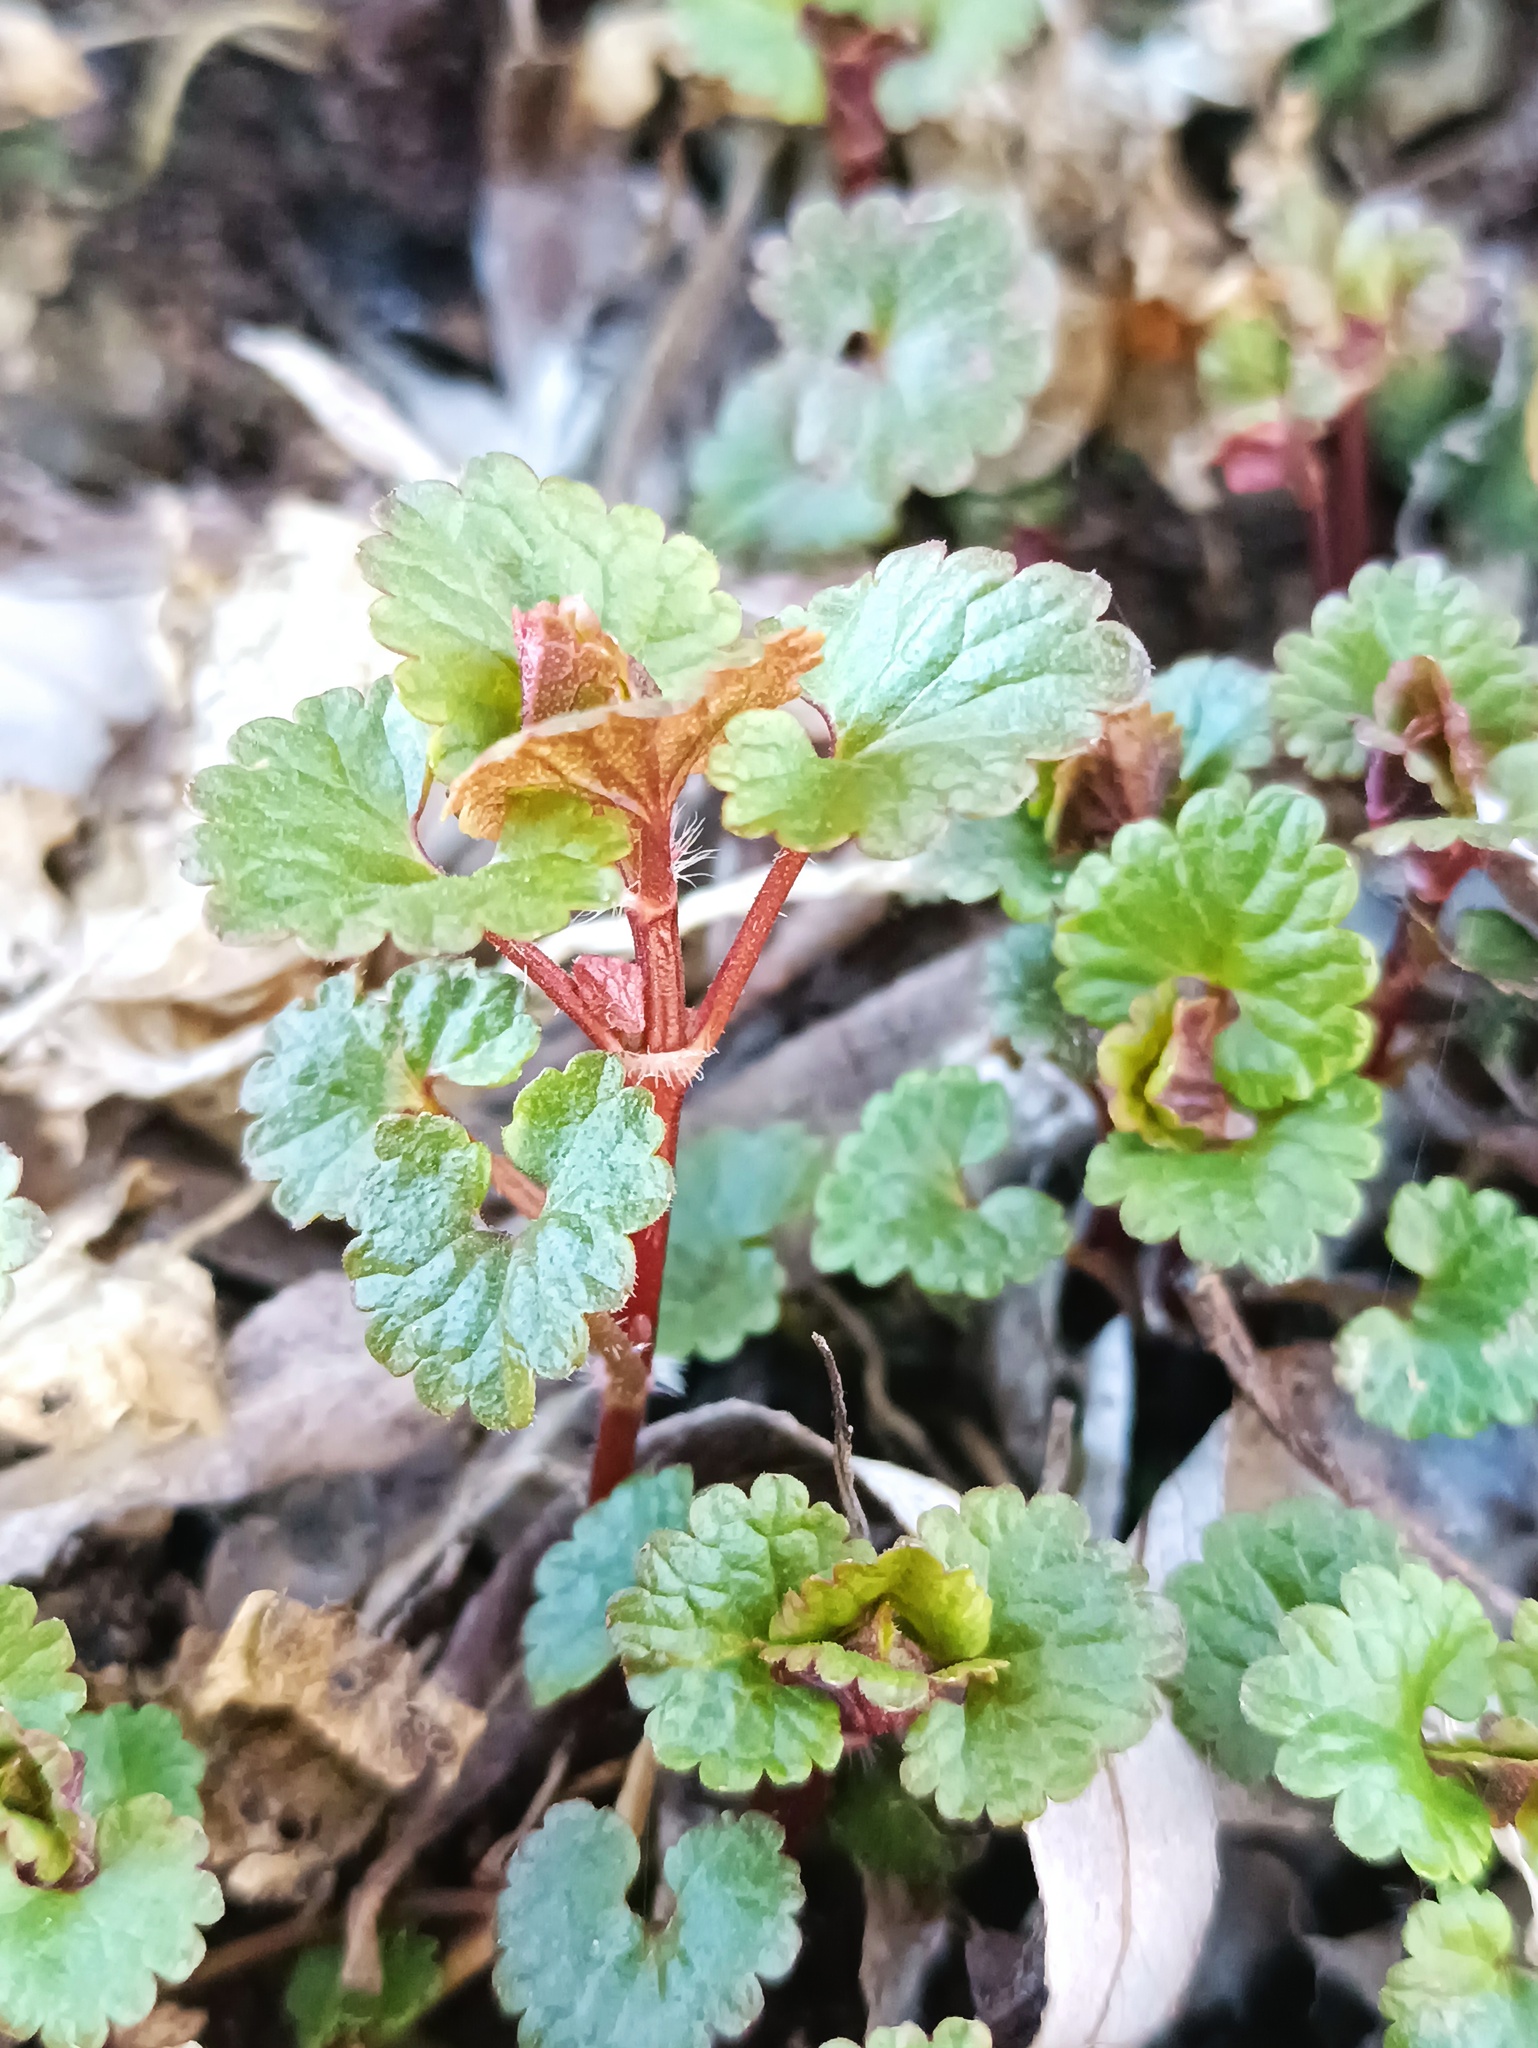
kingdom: Plantae
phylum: Tracheophyta
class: Magnoliopsida
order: Lamiales
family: Lamiaceae
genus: Glechoma
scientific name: Glechoma hederacea
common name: Ground ivy
